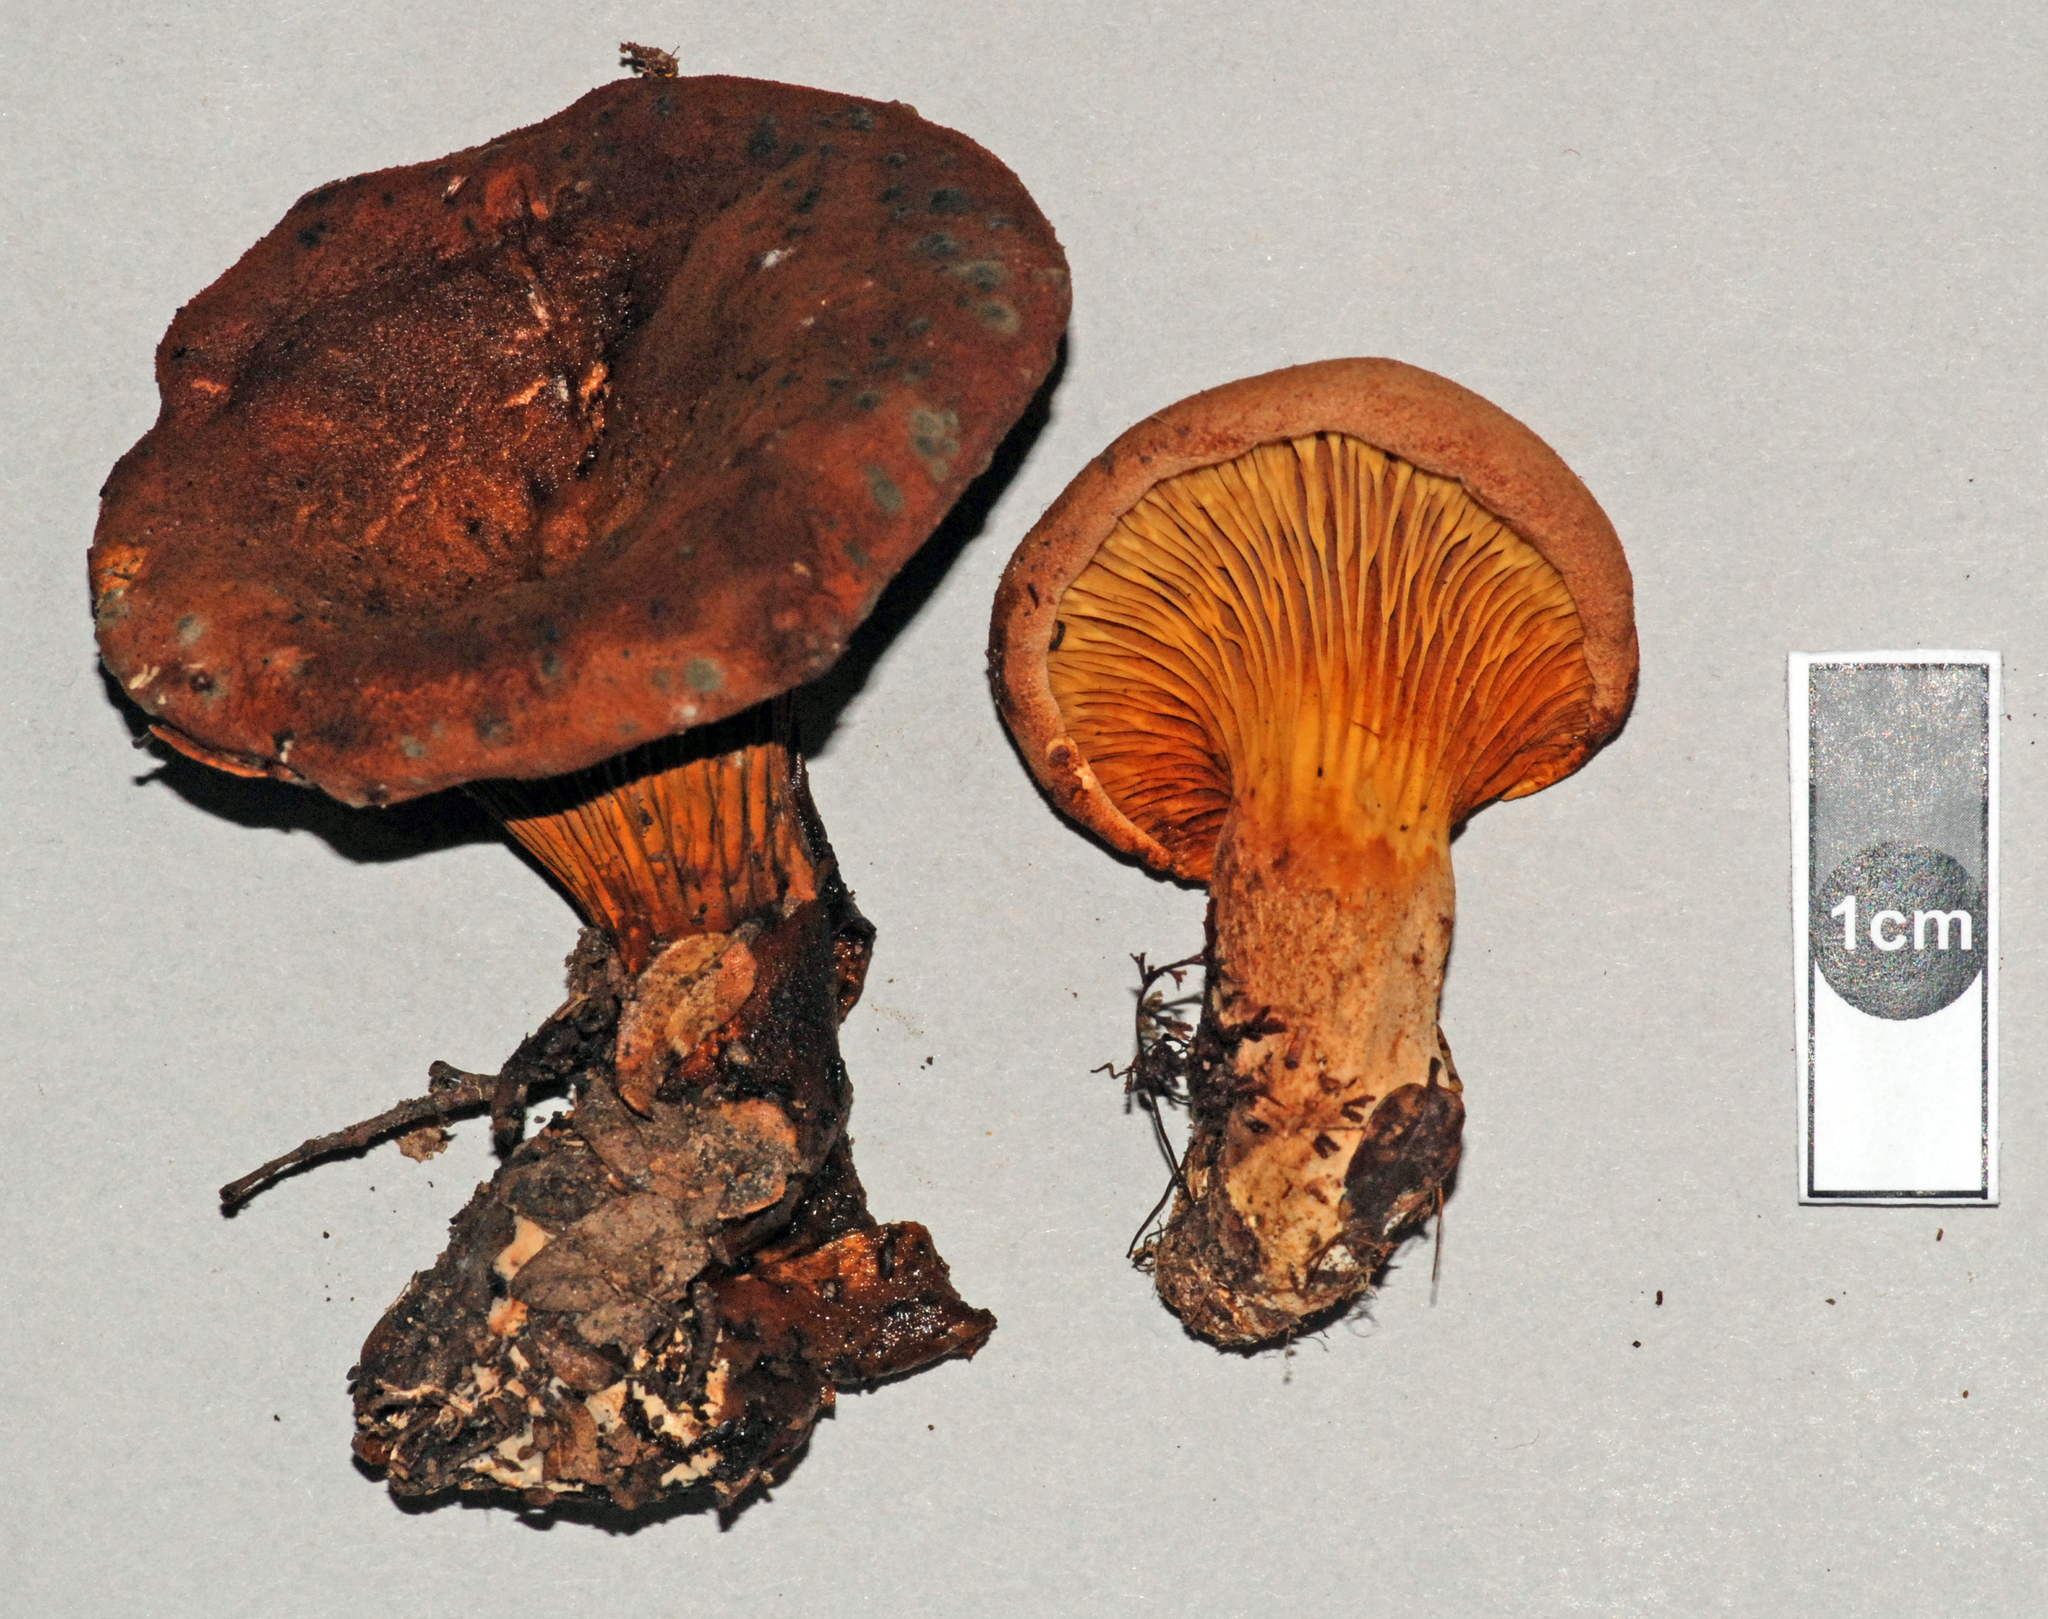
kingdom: Fungi
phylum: Basidiomycota
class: Agaricomycetes
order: Boletales
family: Serpulaceae
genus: Austropaxillus
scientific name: Austropaxillus nothofagi
